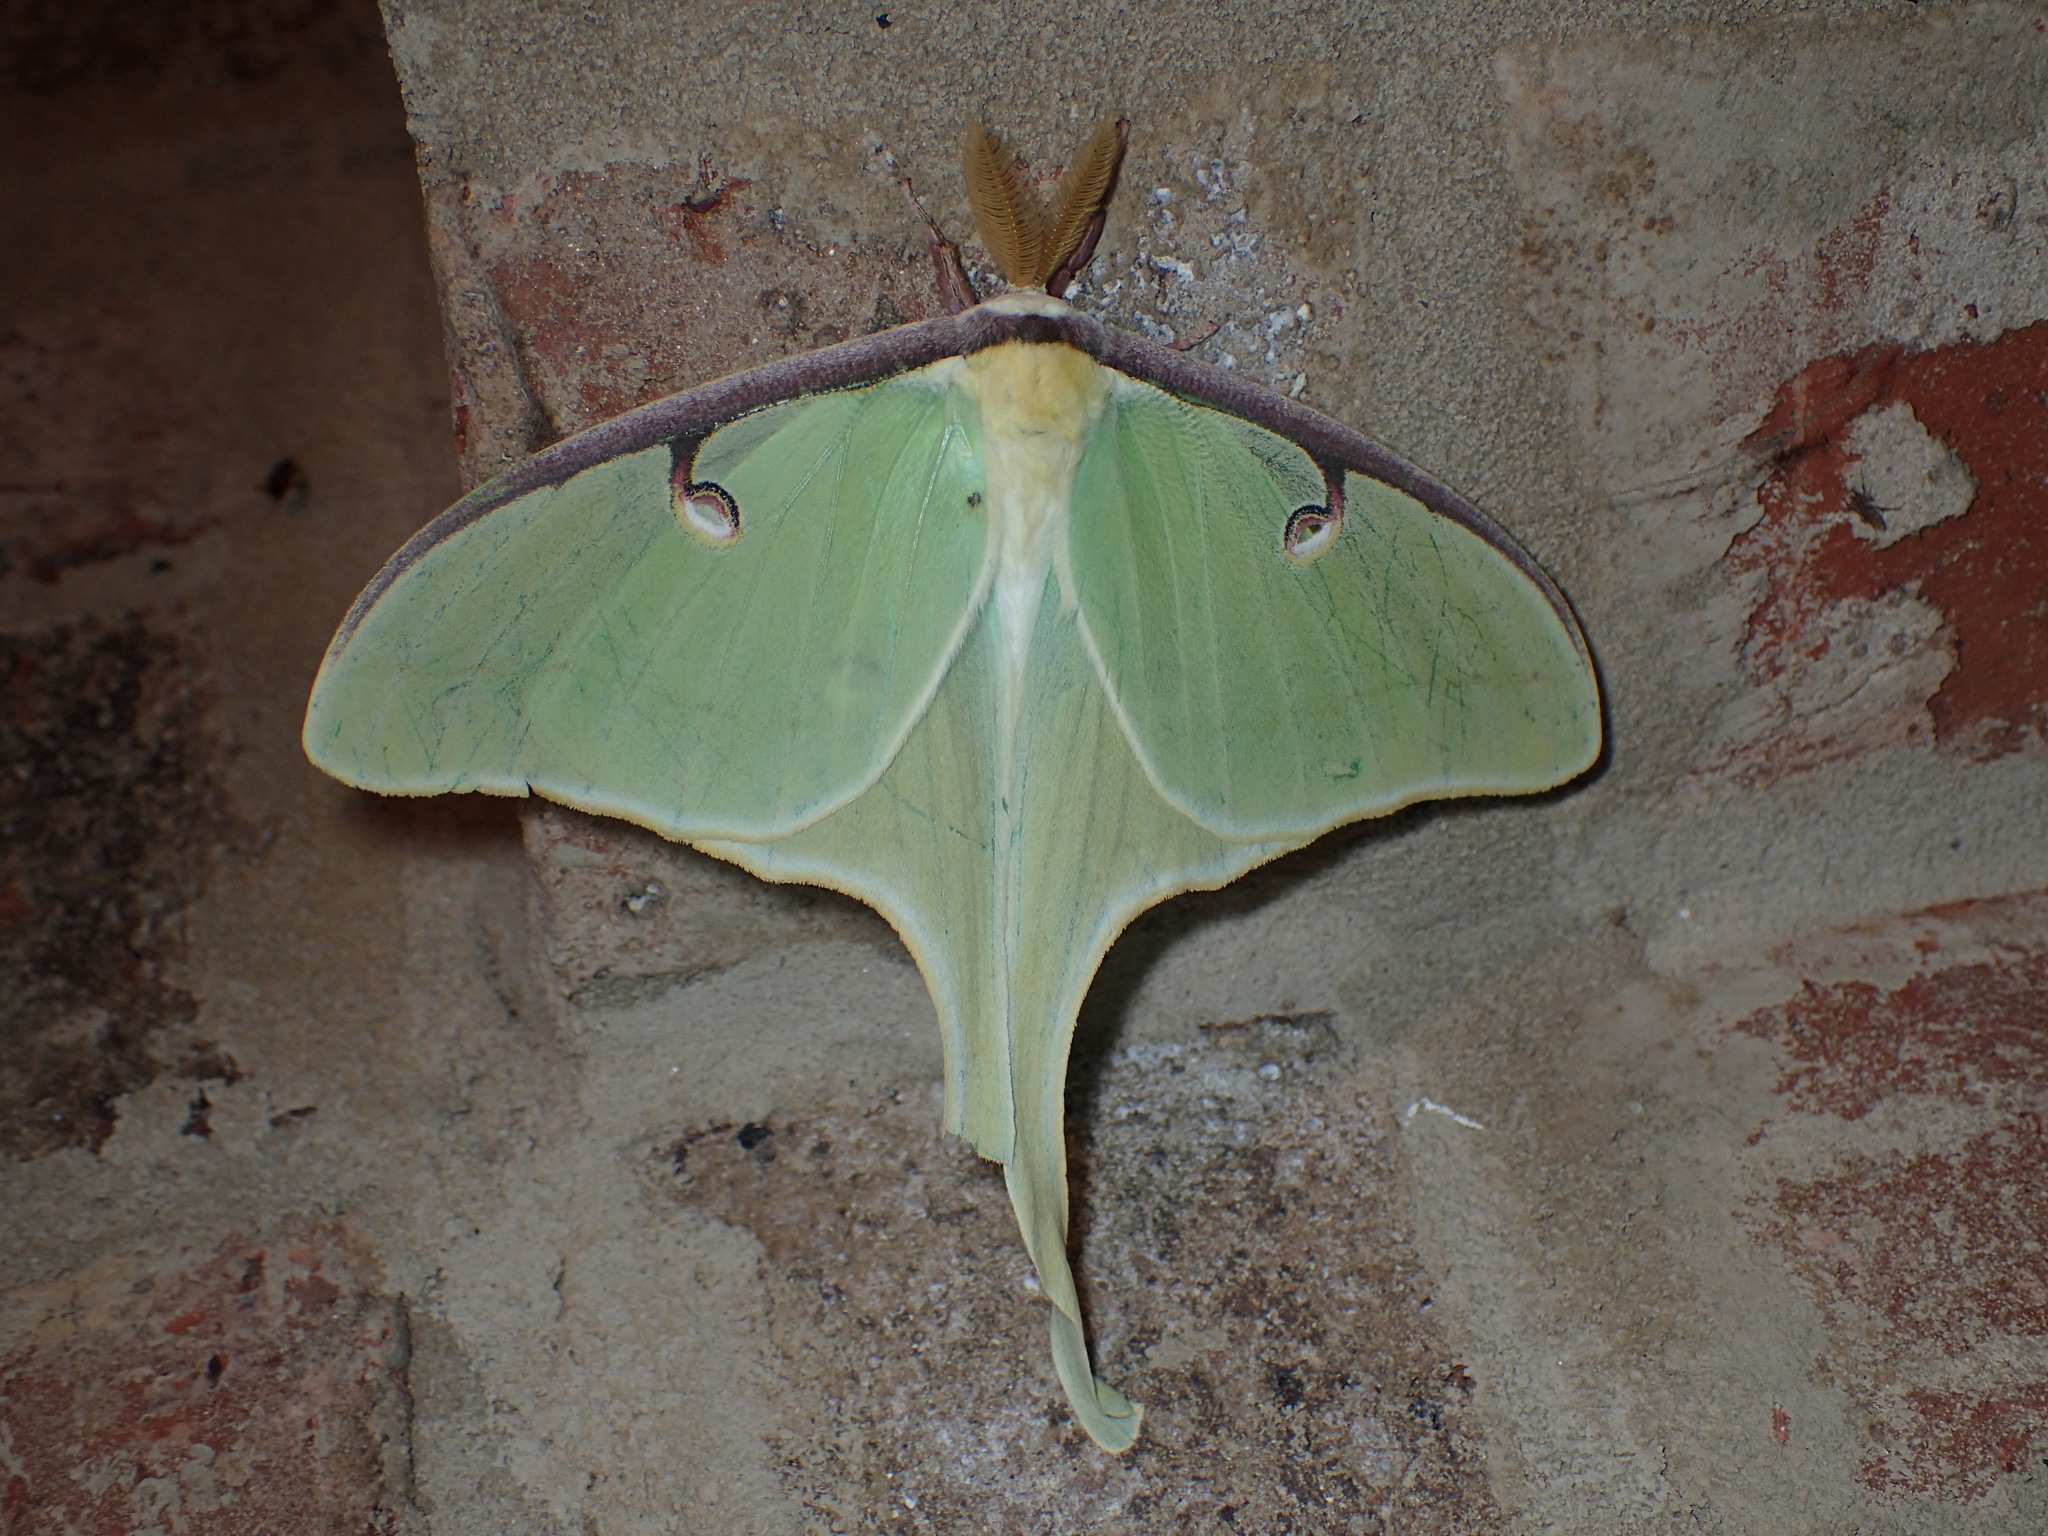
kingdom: Animalia
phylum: Arthropoda
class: Insecta
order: Lepidoptera
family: Saturniidae
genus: Actias
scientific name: Actias luna
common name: Luna moth
